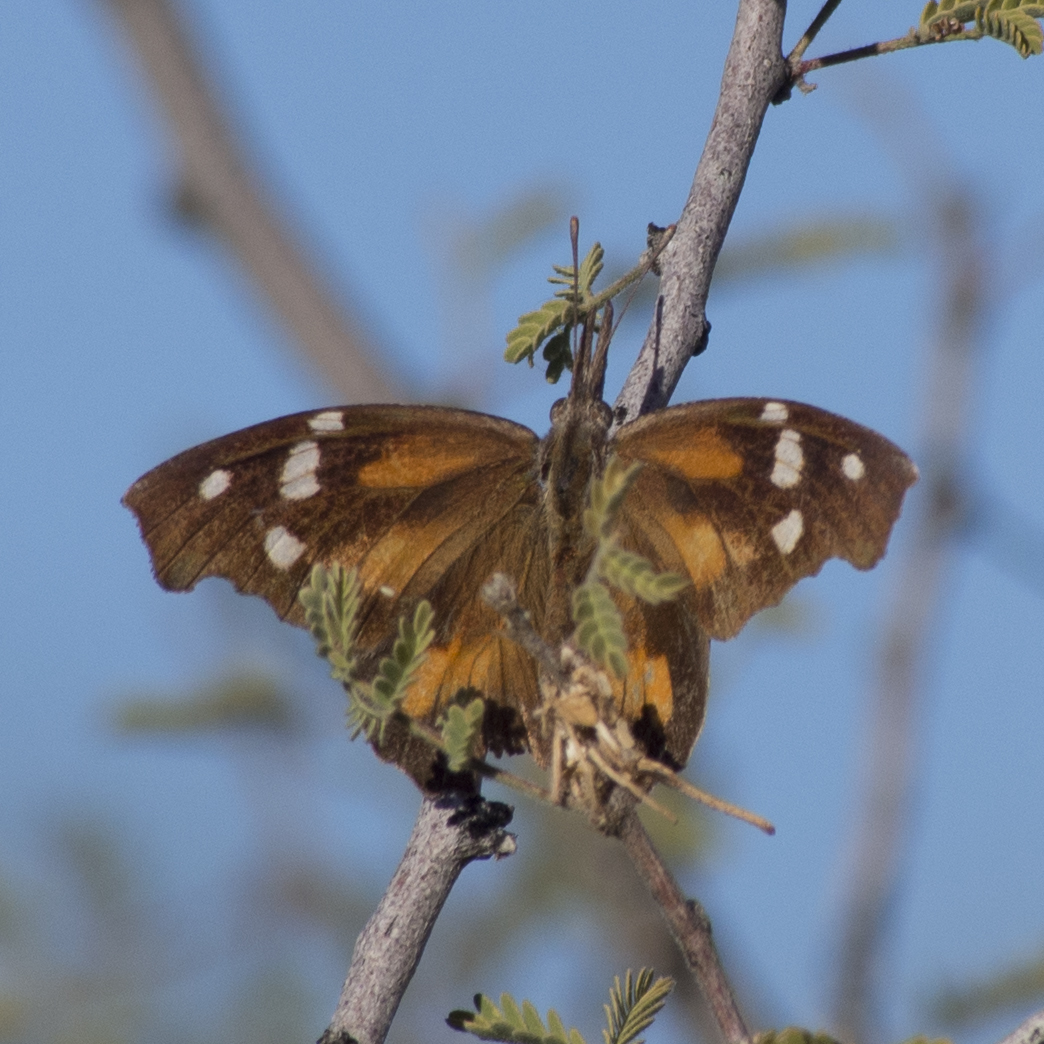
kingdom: Animalia
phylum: Arthropoda
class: Insecta
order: Lepidoptera
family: Nymphalidae
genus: Libytheana
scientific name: Libytheana carinenta
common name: American snout
